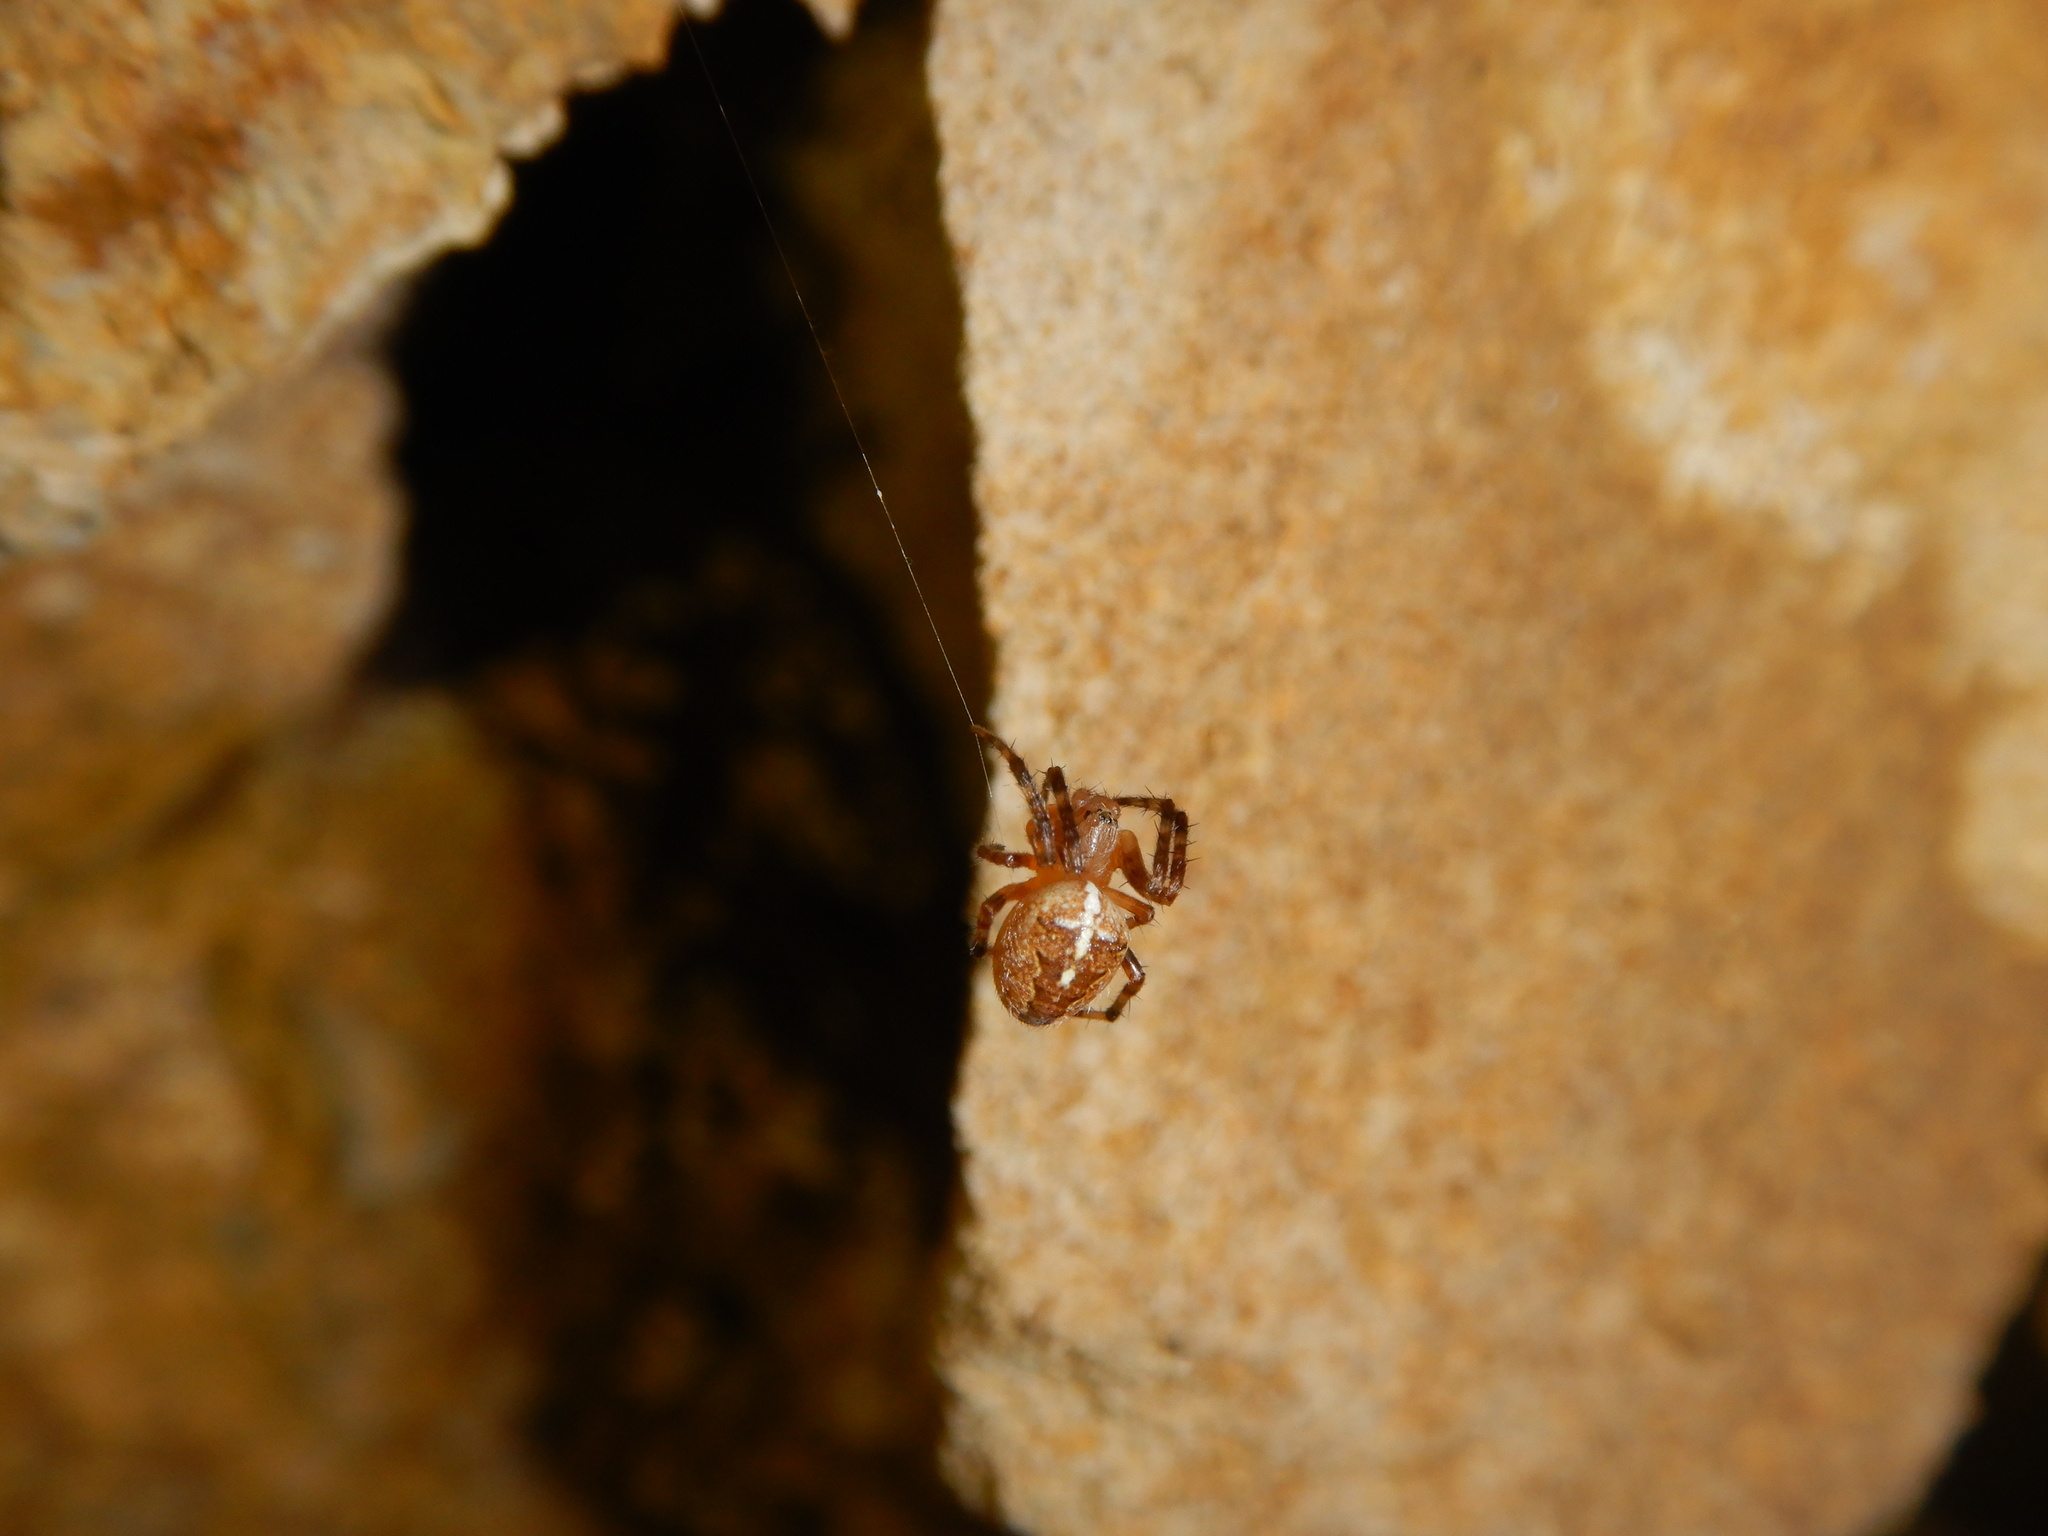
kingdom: Animalia
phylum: Arthropoda
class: Arachnida
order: Araneae
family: Araneidae
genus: Araneus
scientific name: Araneus diadematus
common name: Cross orbweaver
